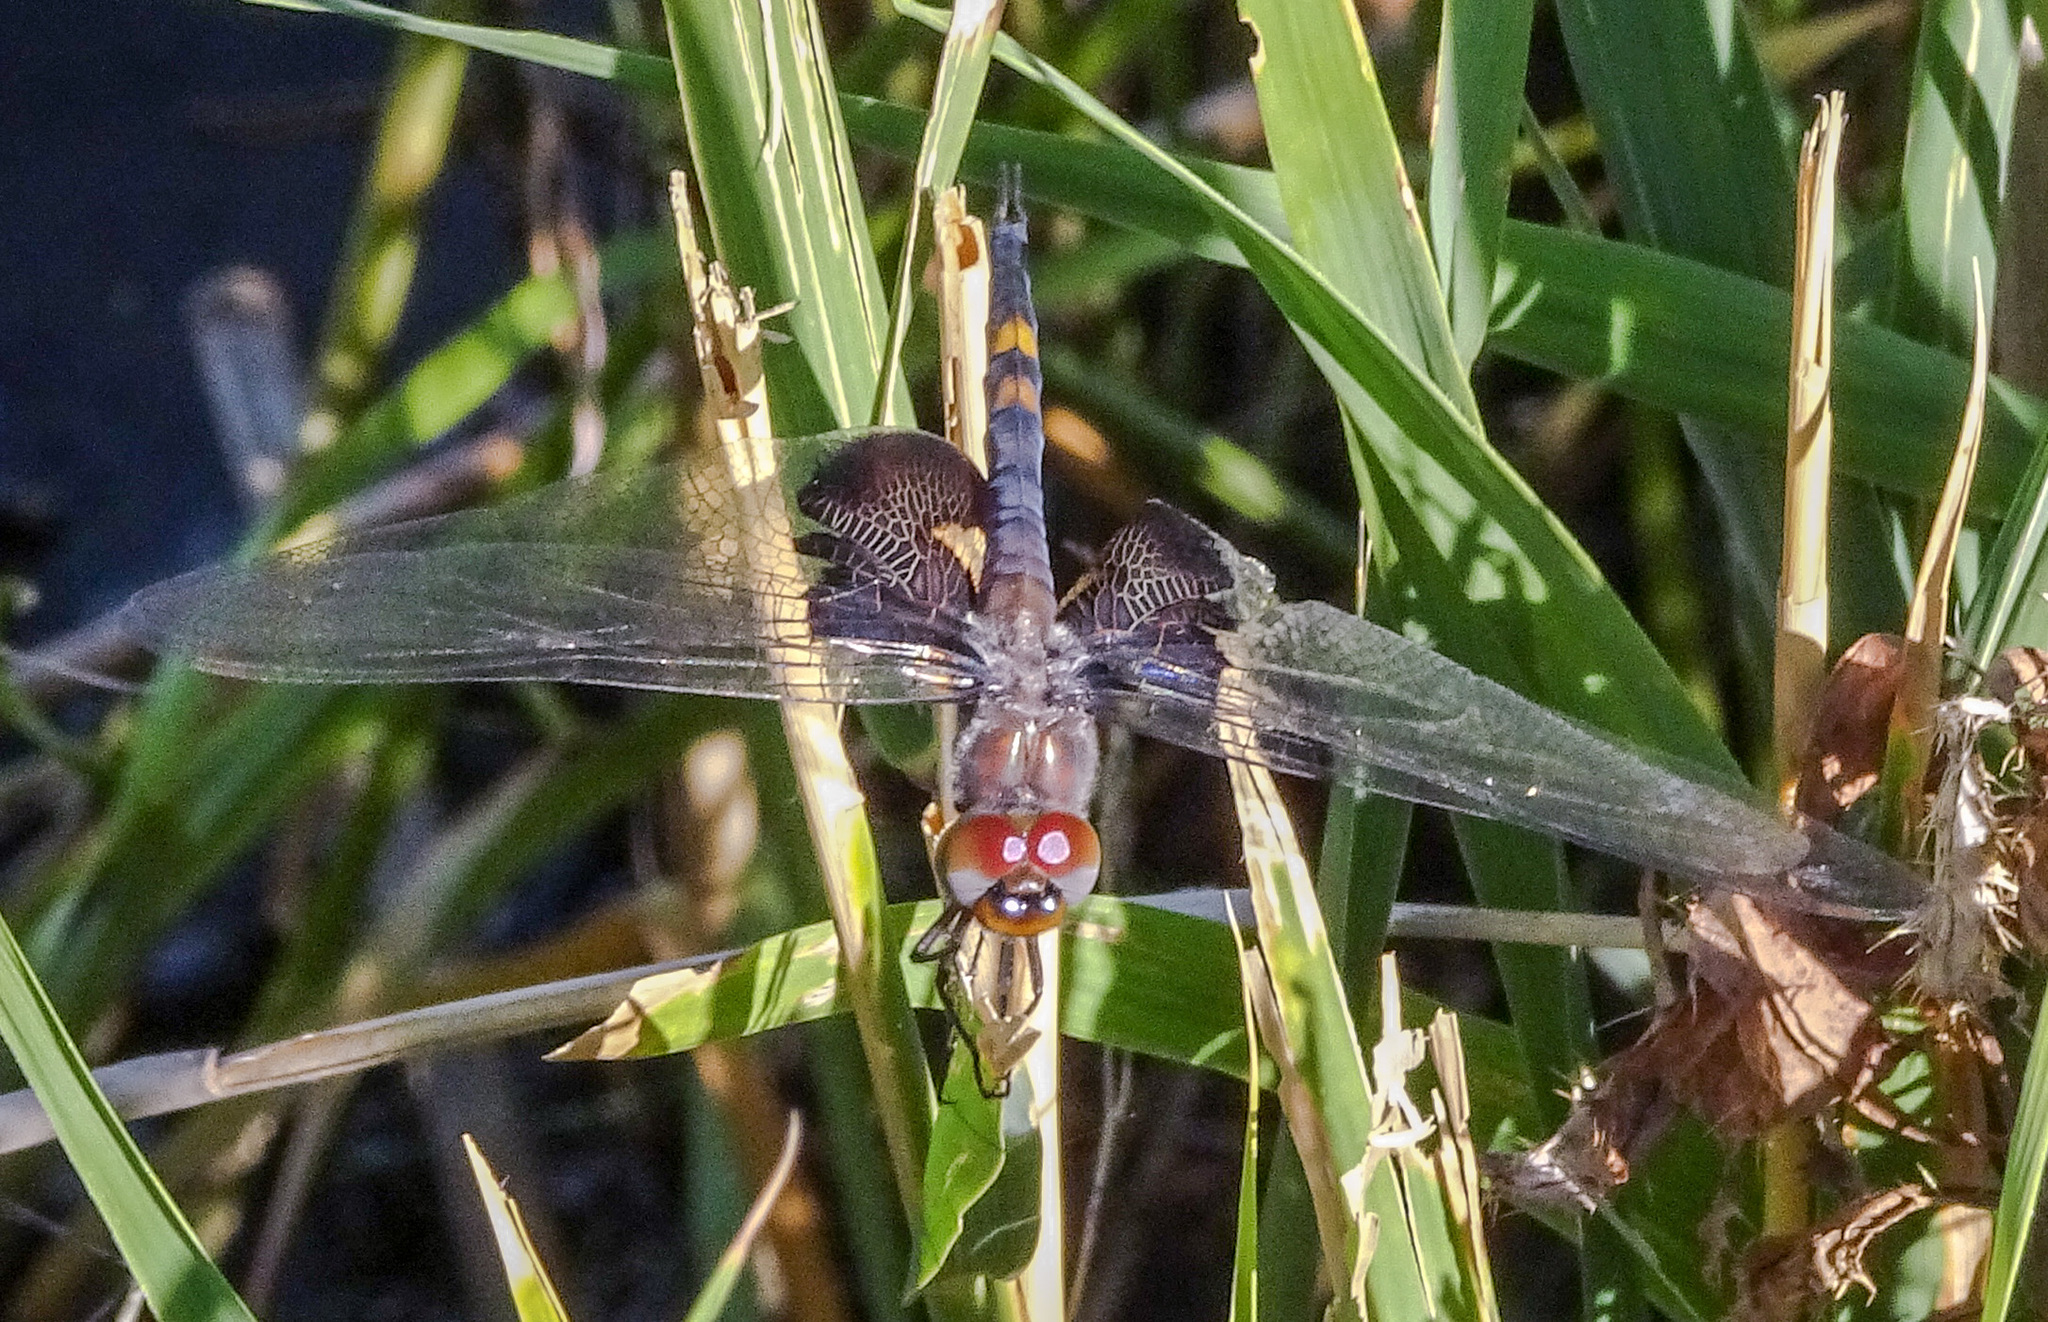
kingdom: Animalia
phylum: Arthropoda
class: Insecta
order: Odonata
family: Libellulidae
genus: Tramea
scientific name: Tramea lacerata
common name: Black saddlebags
